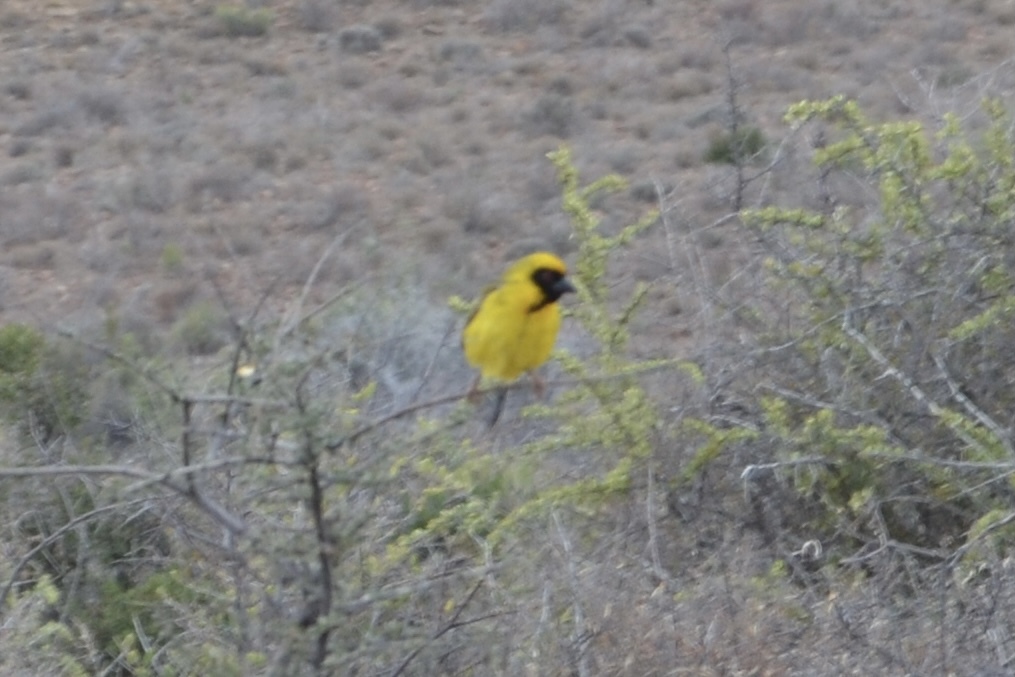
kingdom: Animalia
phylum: Chordata
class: Aves
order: Passeriformes
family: Ploceidae
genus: Ploceus
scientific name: Ploceus velatus
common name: Southern masked weaver
